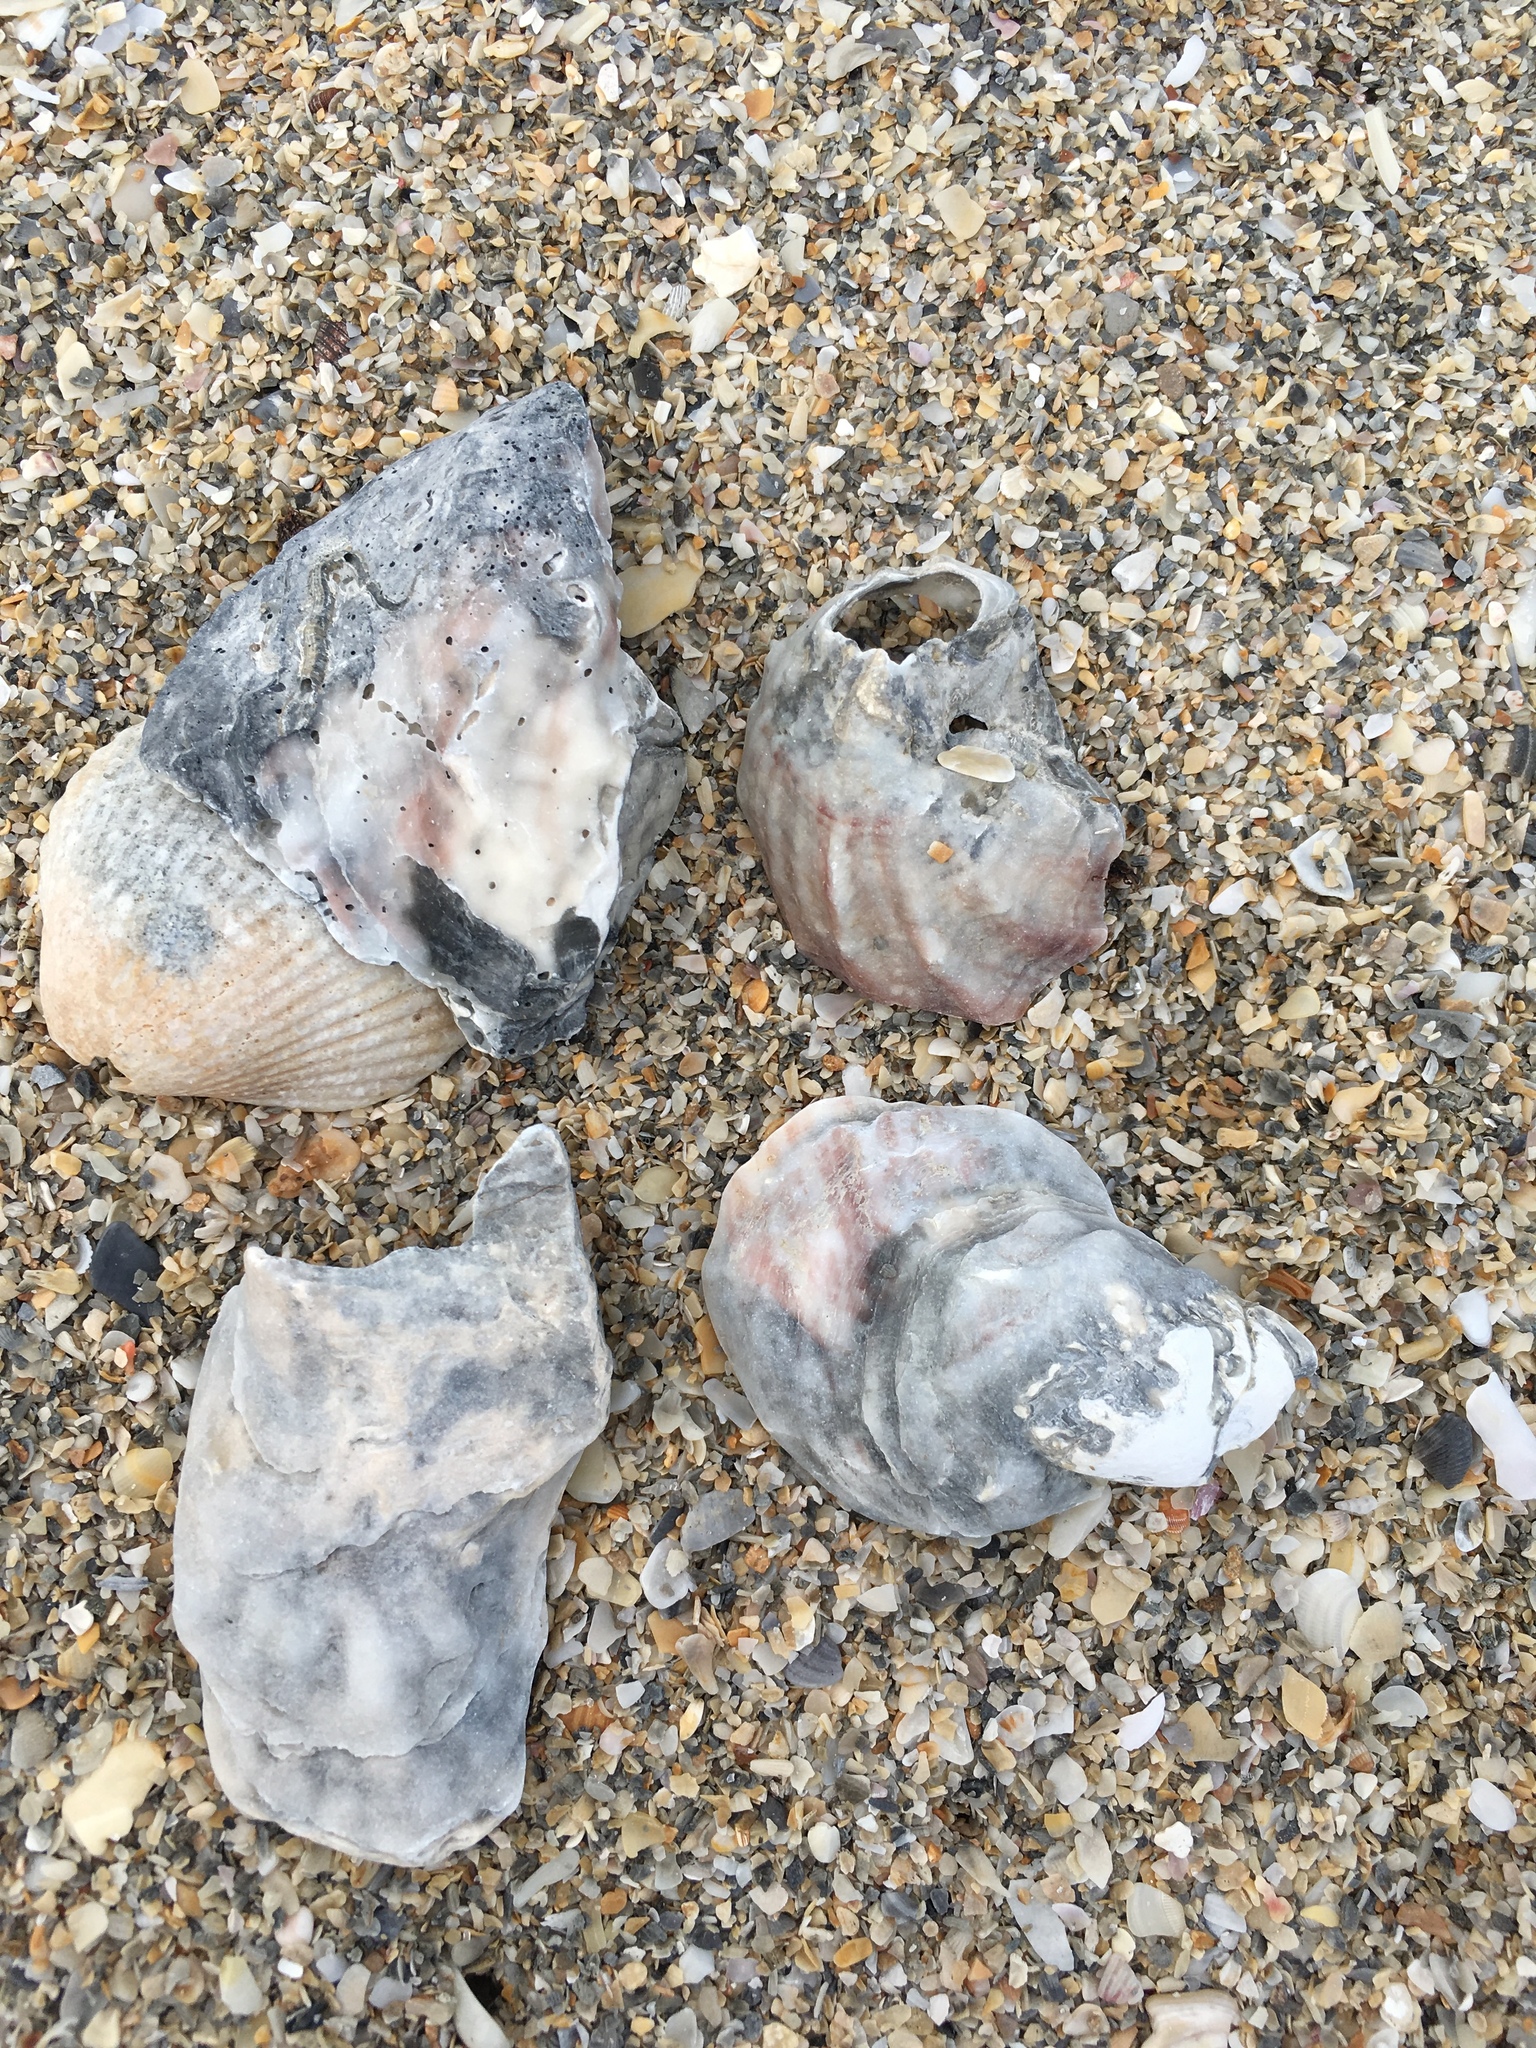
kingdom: Animalia
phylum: Mollusca
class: Bivalvia
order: Ostreida
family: Ostreidae
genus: Crassostrea
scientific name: Crassostrea virginica
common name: American oyster
